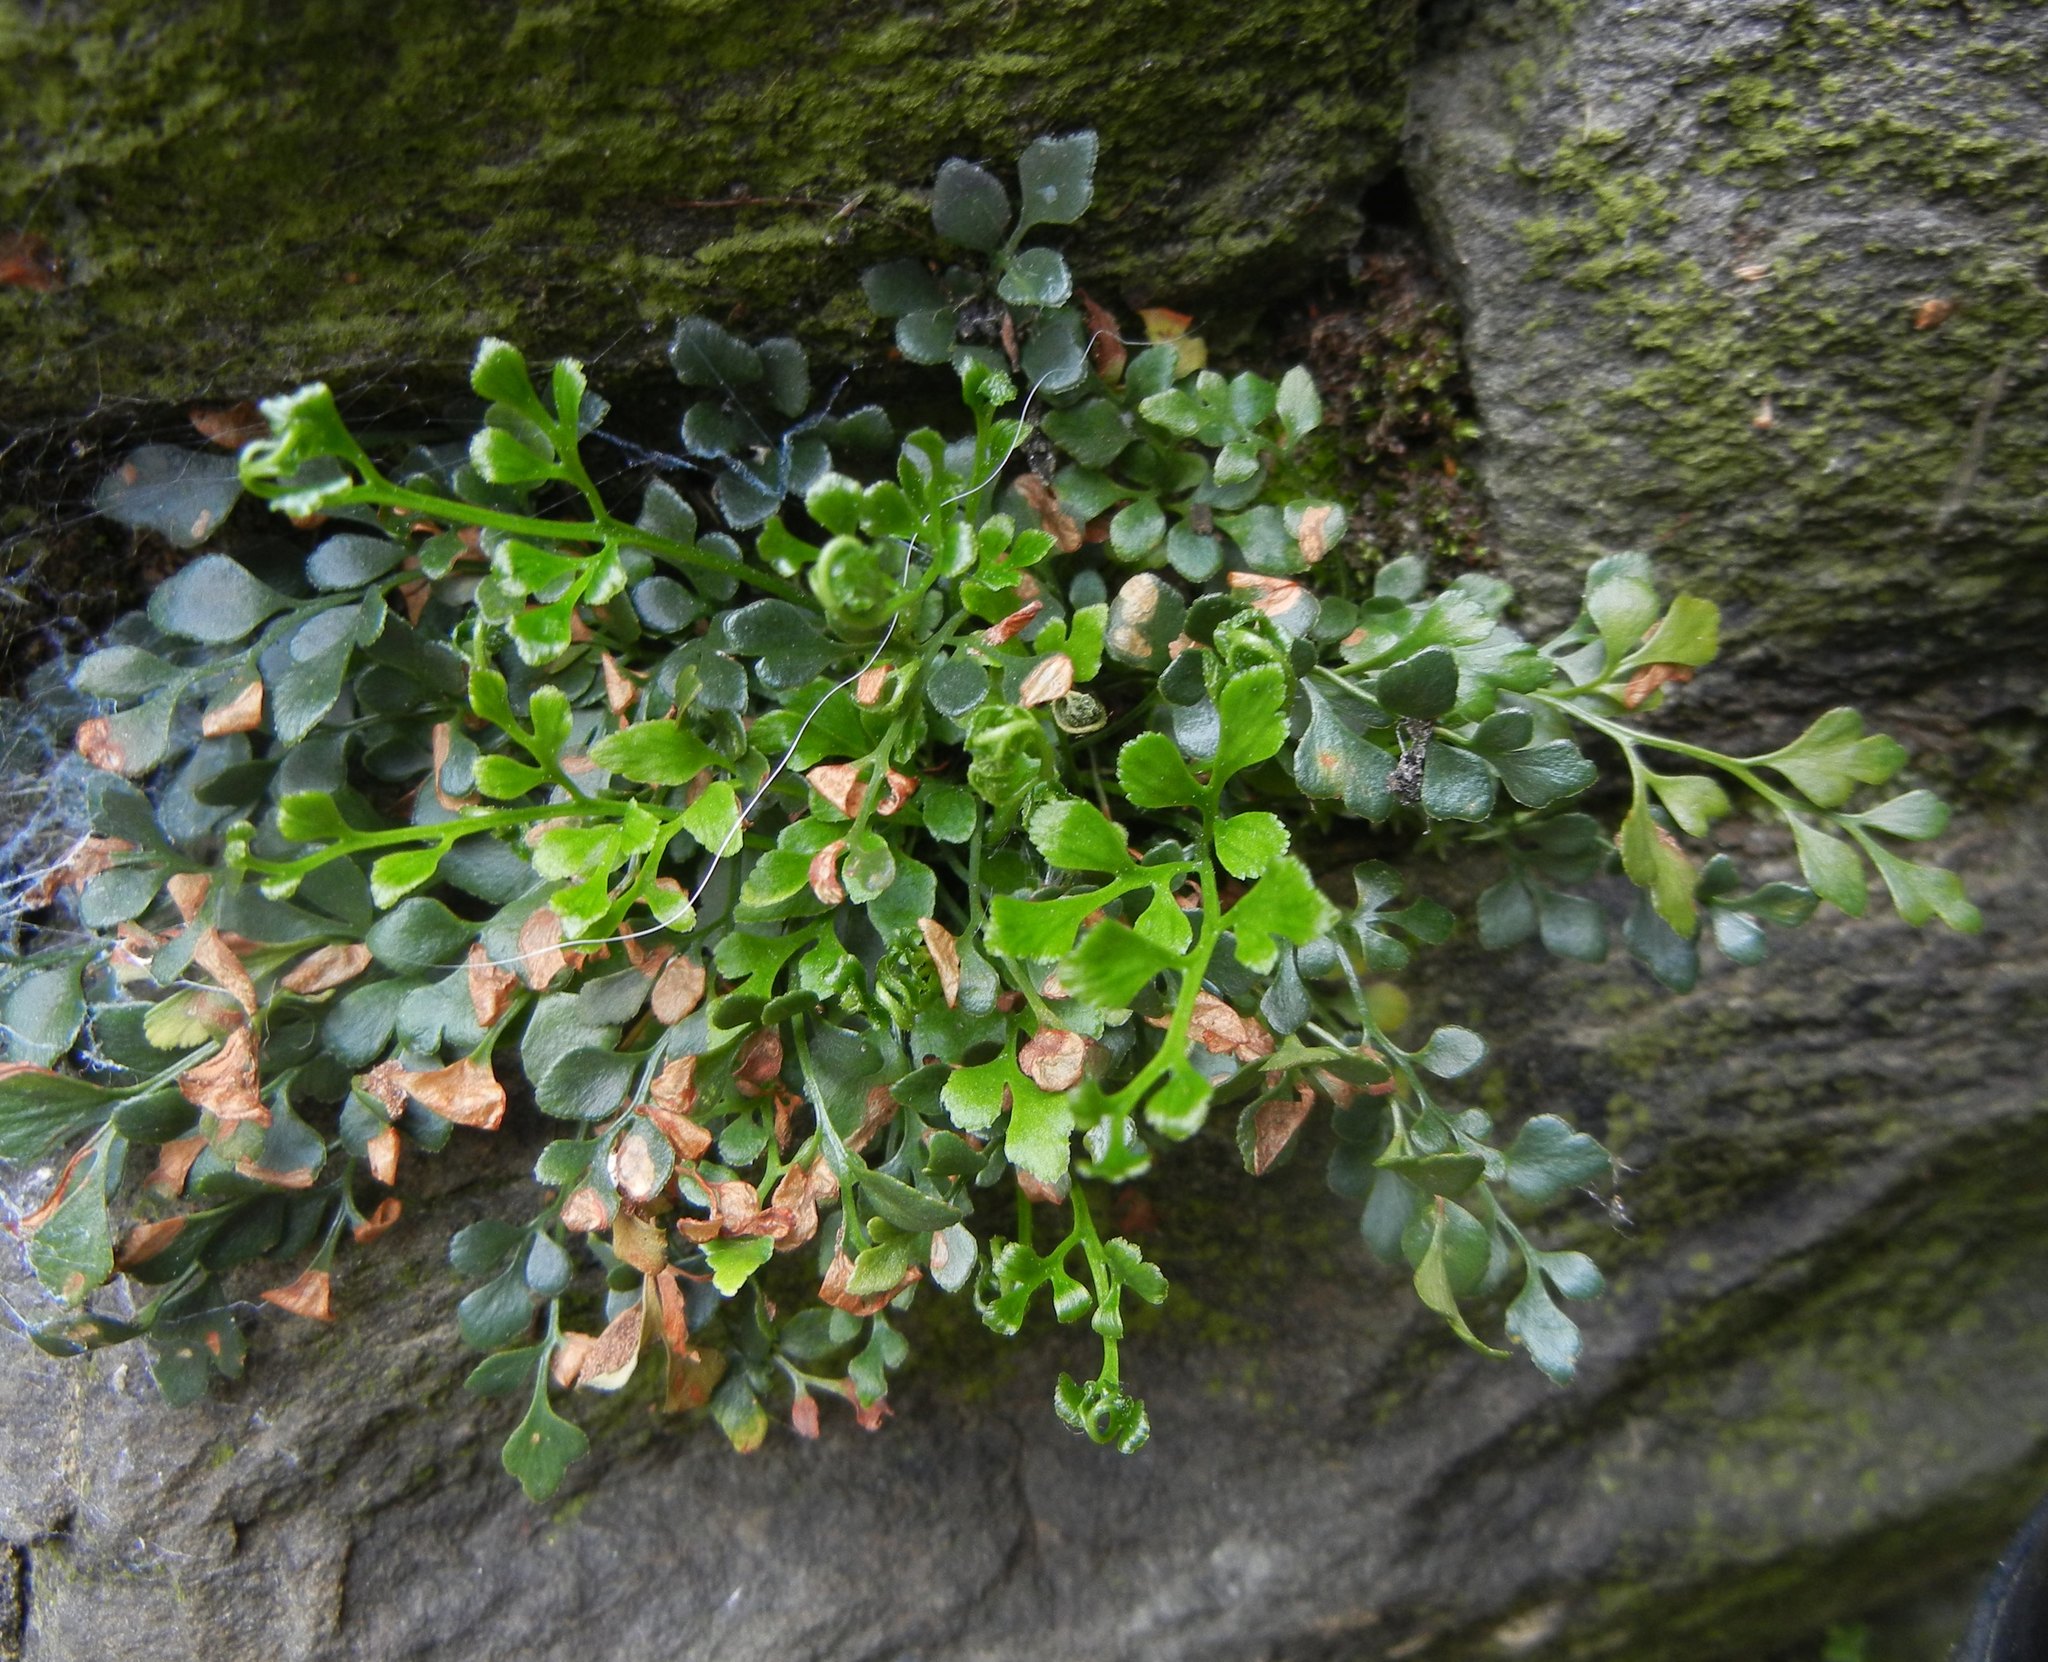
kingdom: Plantae
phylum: Tracheophyta
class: Polypodiopsida
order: Polypodiales
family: Aspleniaceae
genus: Asplenium
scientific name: Asplenium ruta-muraria
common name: Wall-rue
